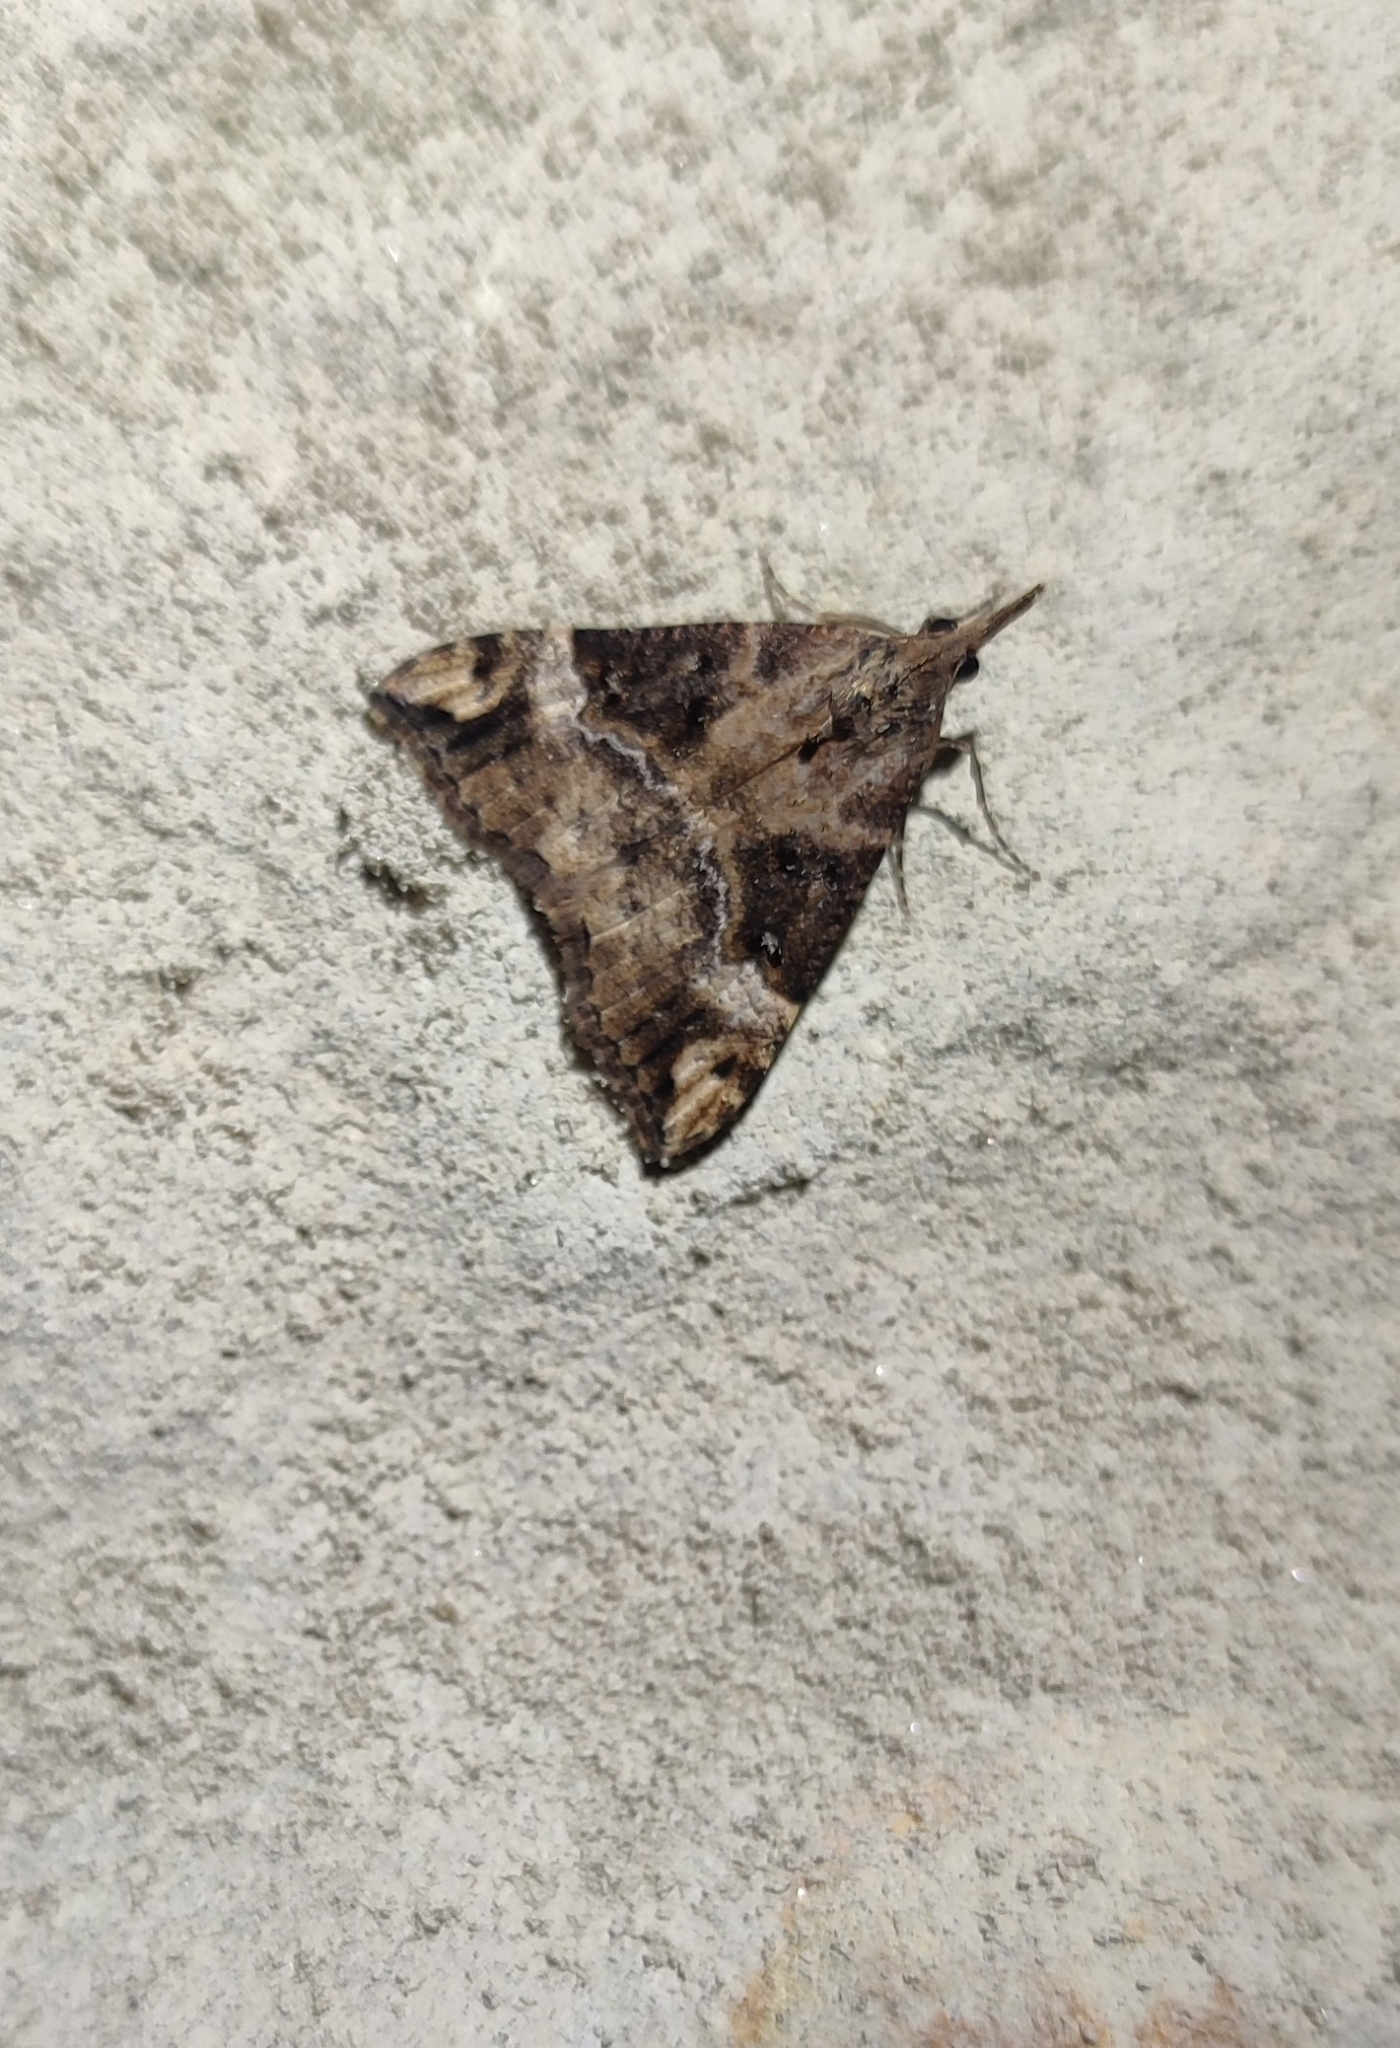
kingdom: Animalia
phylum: Arthropoda
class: Insecta
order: Lepidoptera
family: Erebidae
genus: Hypena
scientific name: Hypena obsitalis
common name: Bloxworth snout
